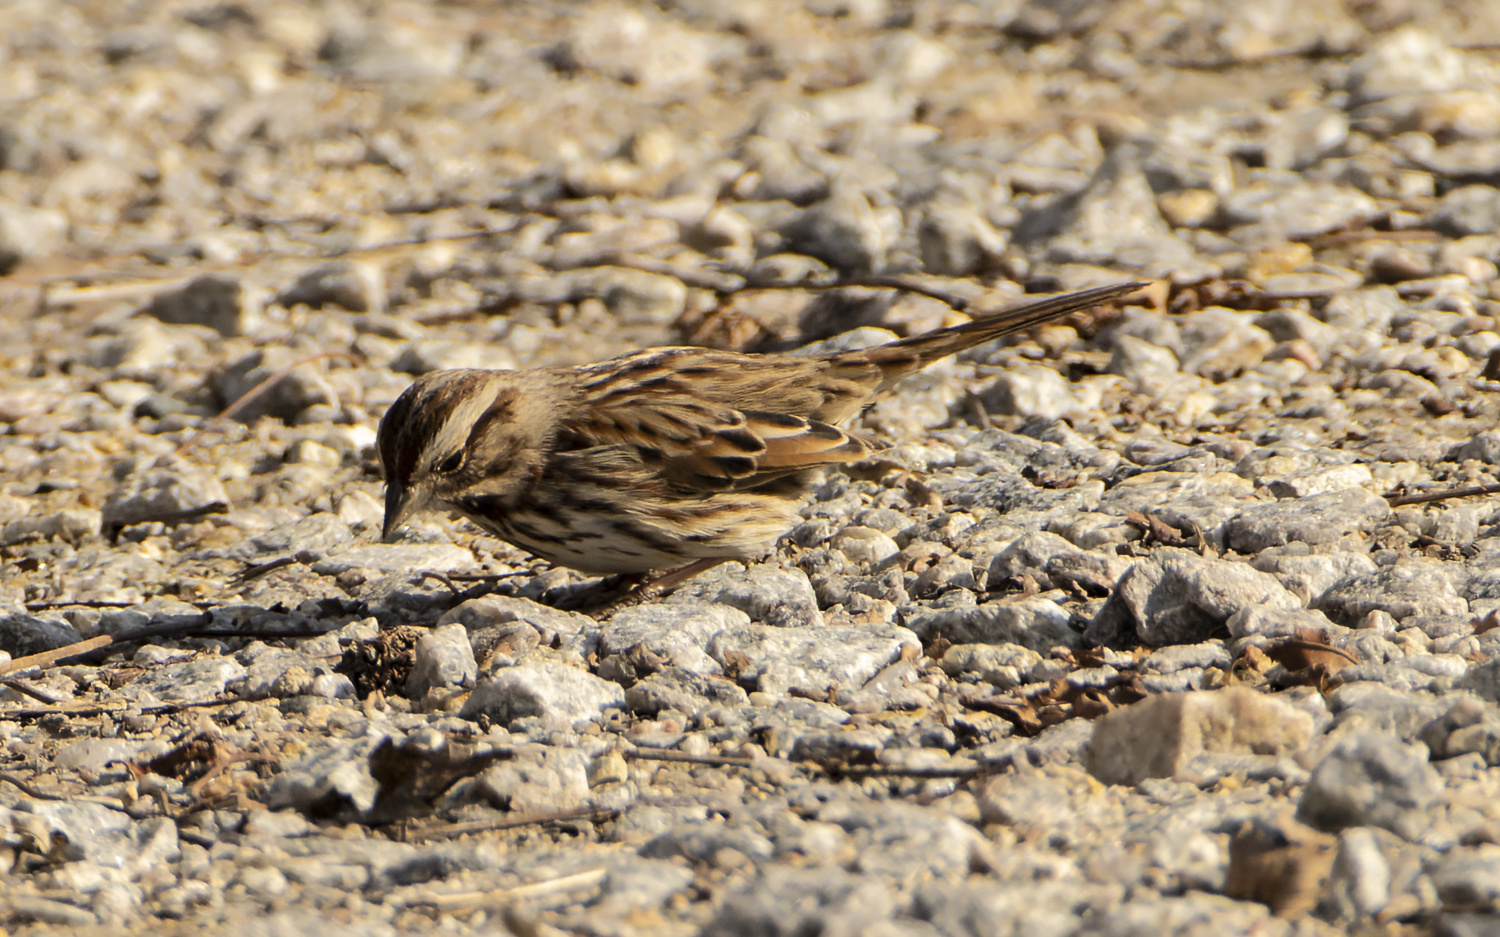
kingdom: Animalia
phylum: Chordata
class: Aves
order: Passeriformes
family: Passerellidae
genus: Melospiza
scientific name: Melospiza melodia
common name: Song sparrow
